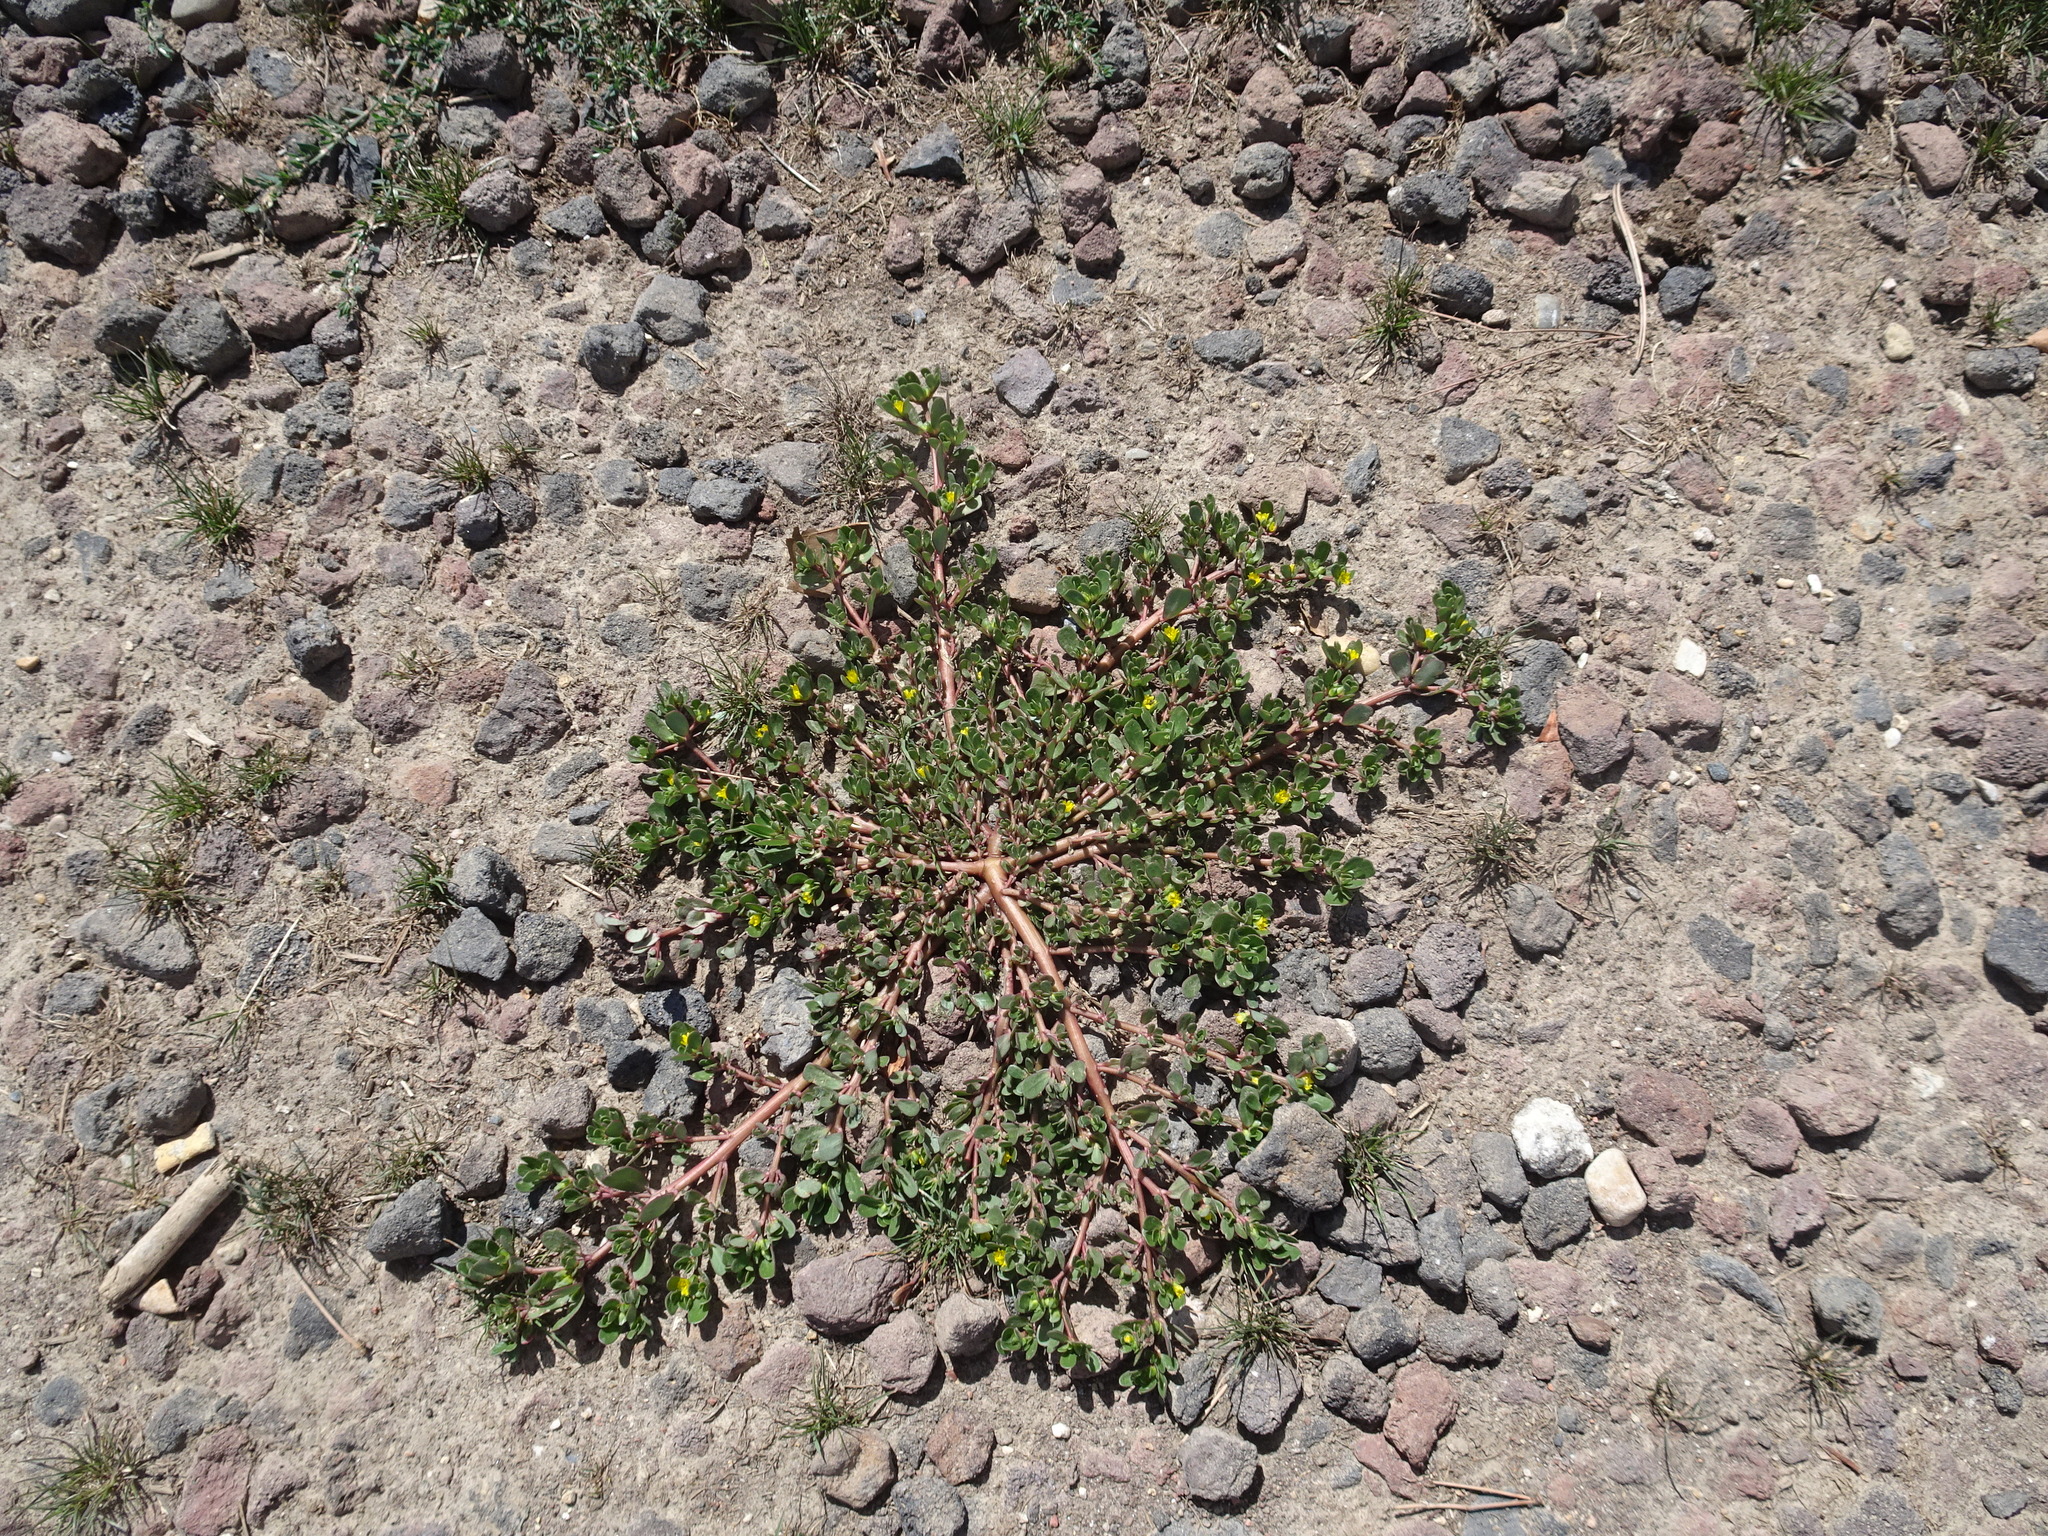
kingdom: Plantae
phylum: Tracheophyta
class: Magnoliopsida
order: Caryophyllales
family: Portulacaceae
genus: Portulaca
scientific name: Portulaca oleracea
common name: Common purslane
